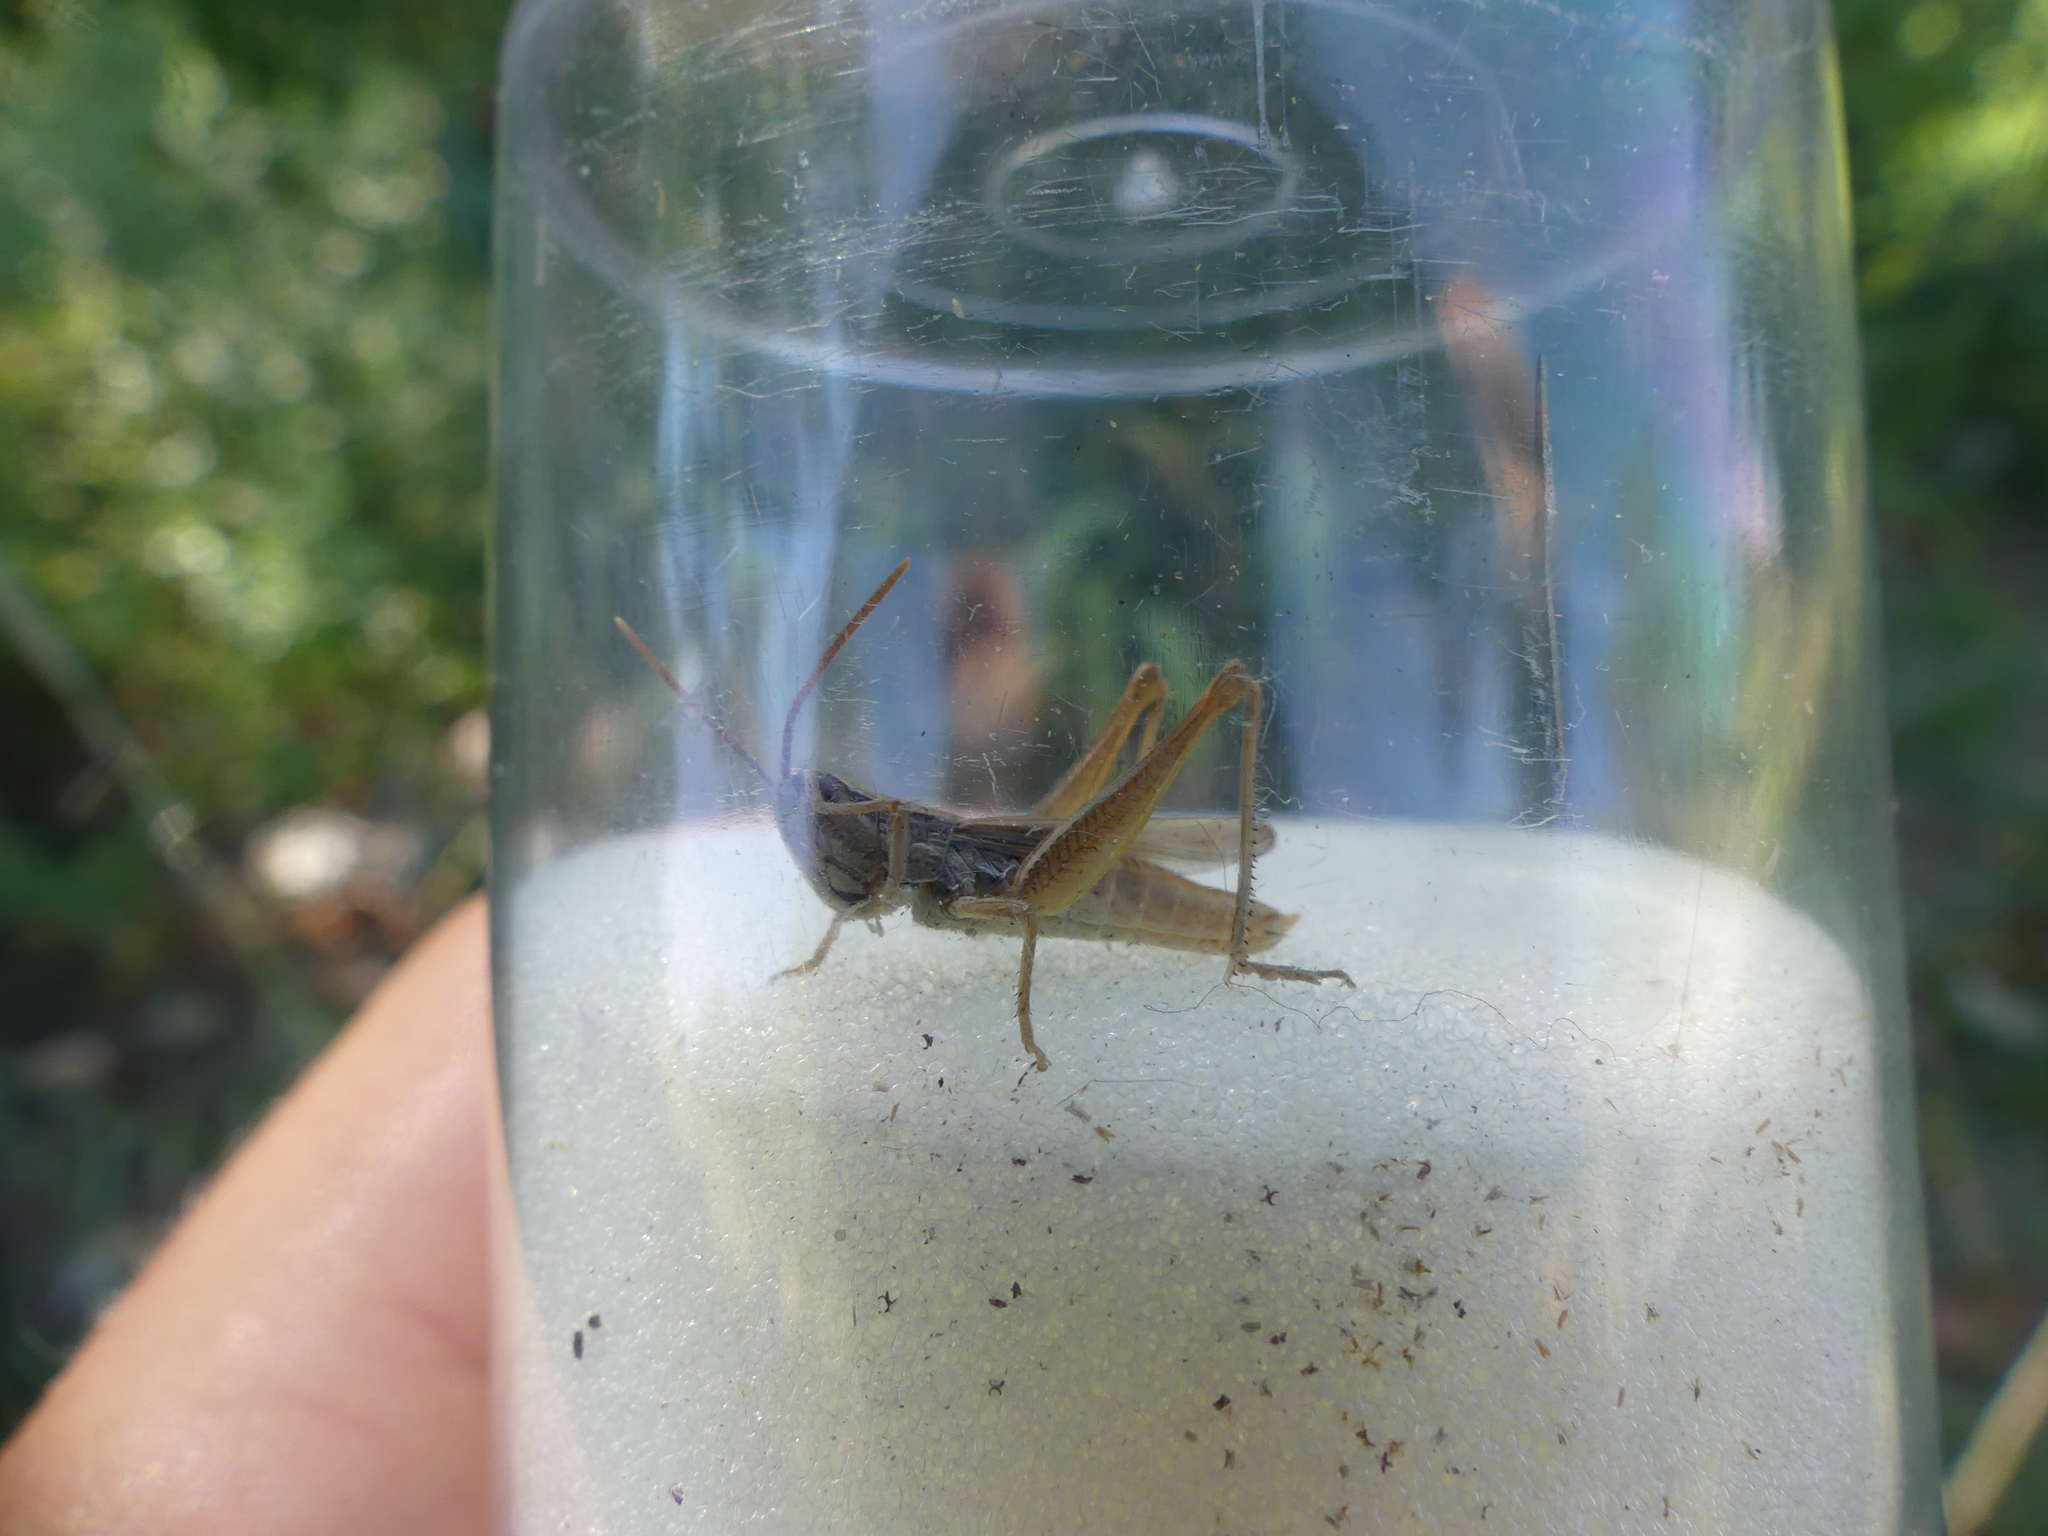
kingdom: Animalia
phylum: Arthropoda
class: Insecta
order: Orthoptera
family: Acrididae
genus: Euchorthippus
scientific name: Euchorthippus elegantulus
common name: Elegant straw grasshopper
